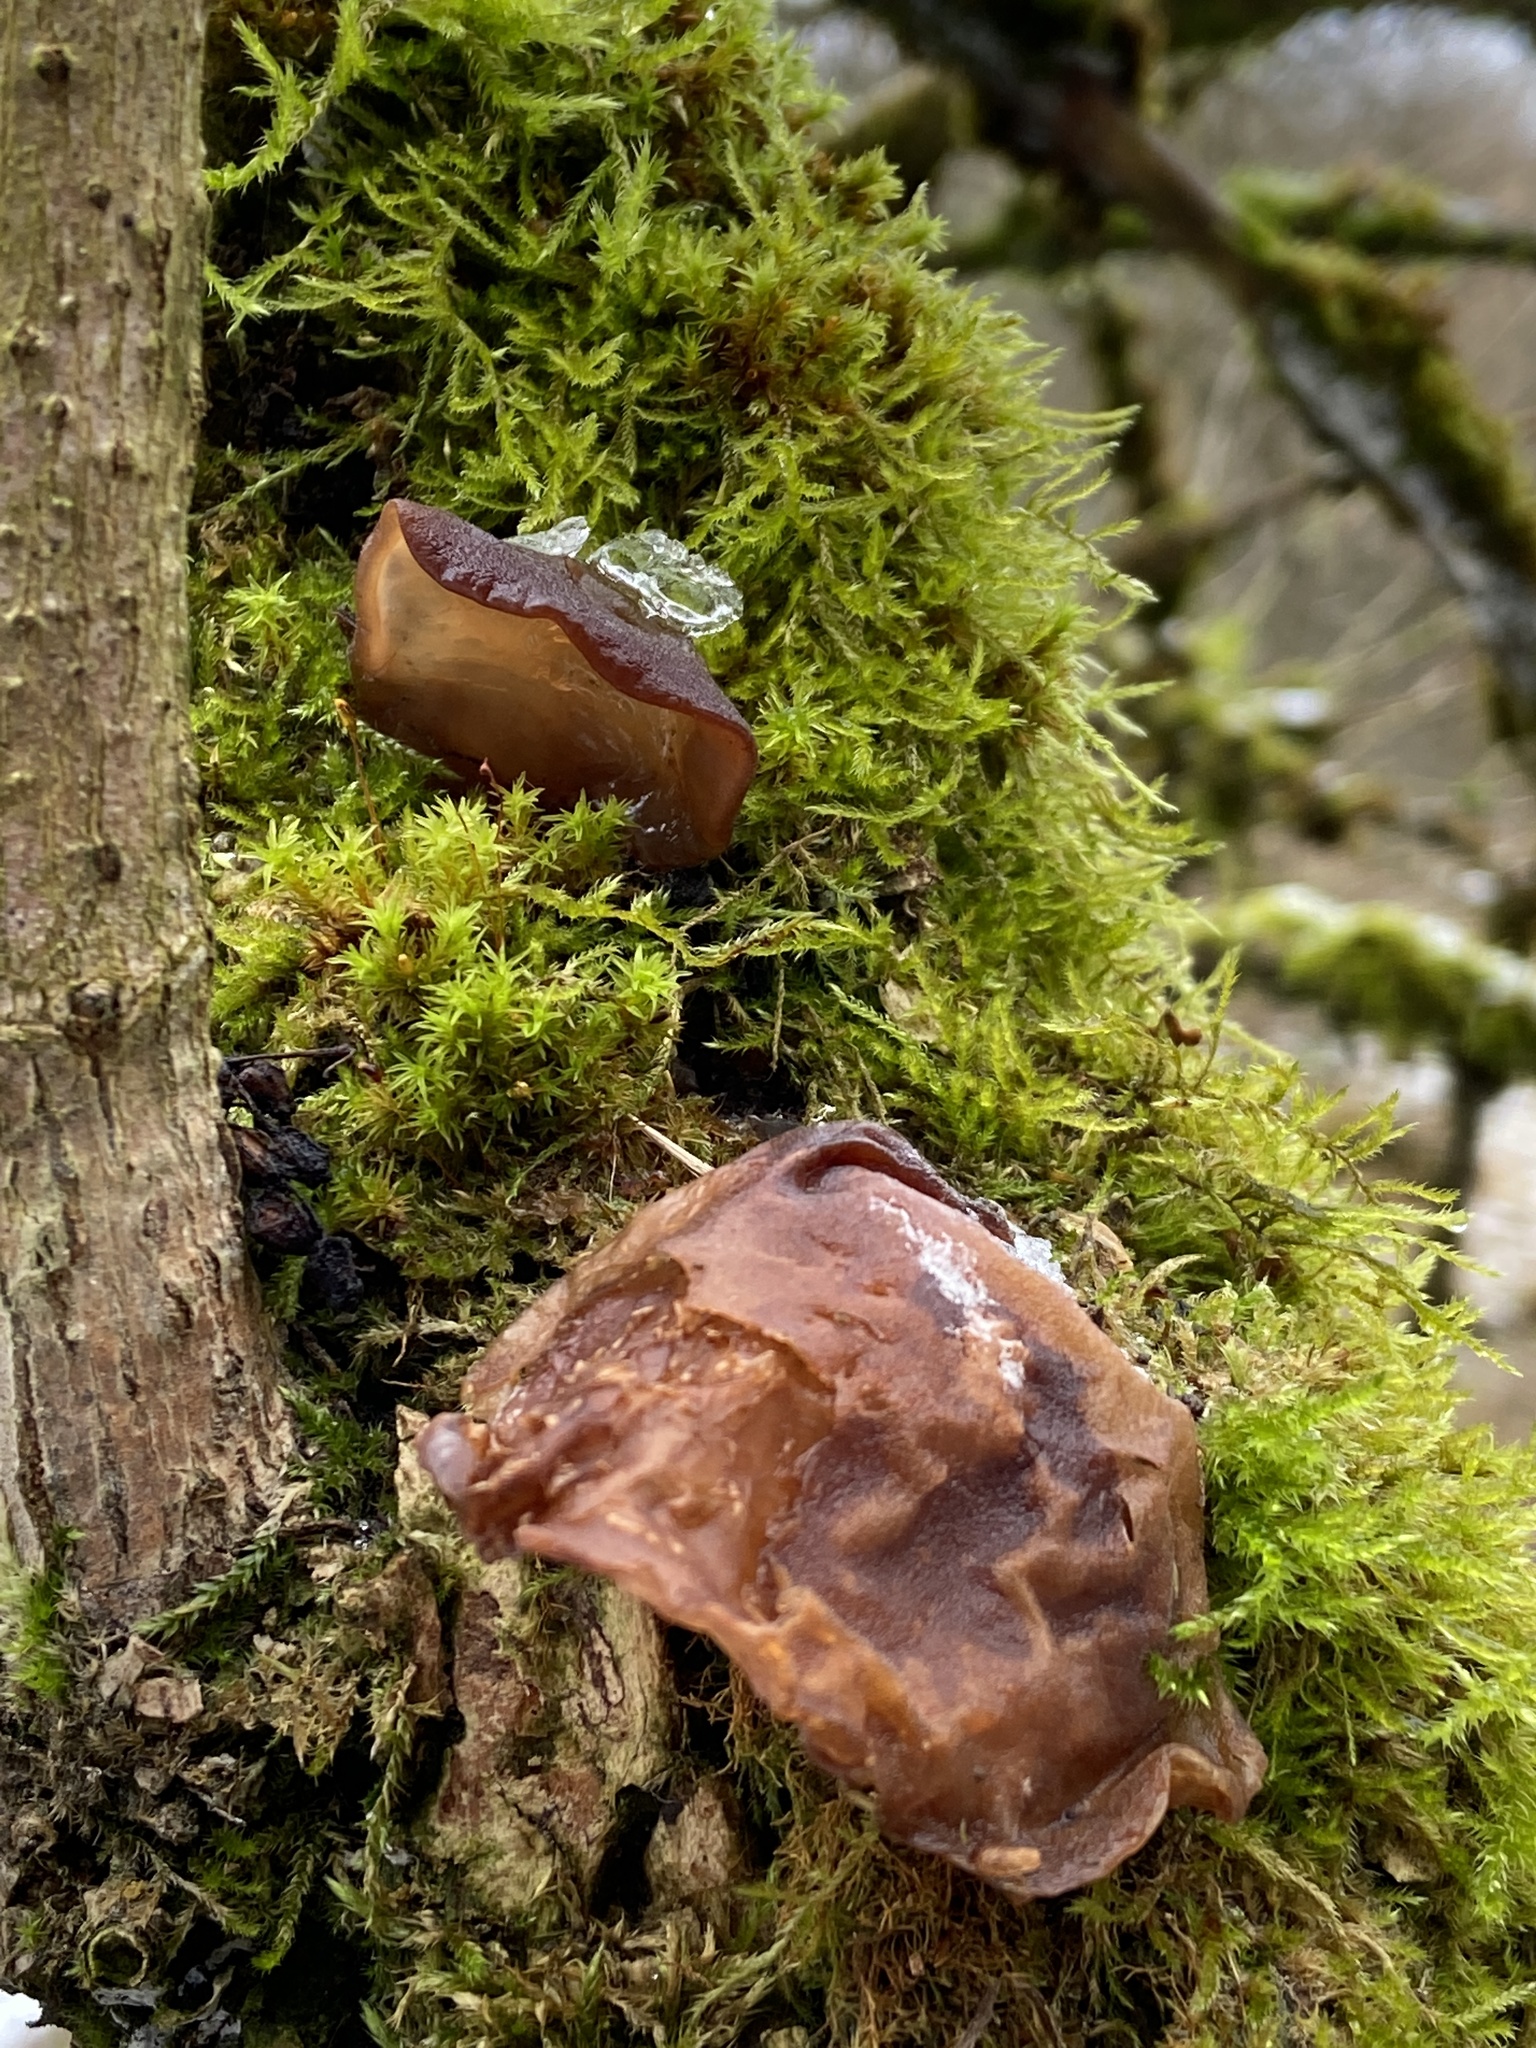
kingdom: Fungi
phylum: Basidiomycota
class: Agaricomycetes
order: Auriculariales
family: Auriculariaceae
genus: Auricularia
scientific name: Auricularia auricula-judae
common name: Jelly ear
